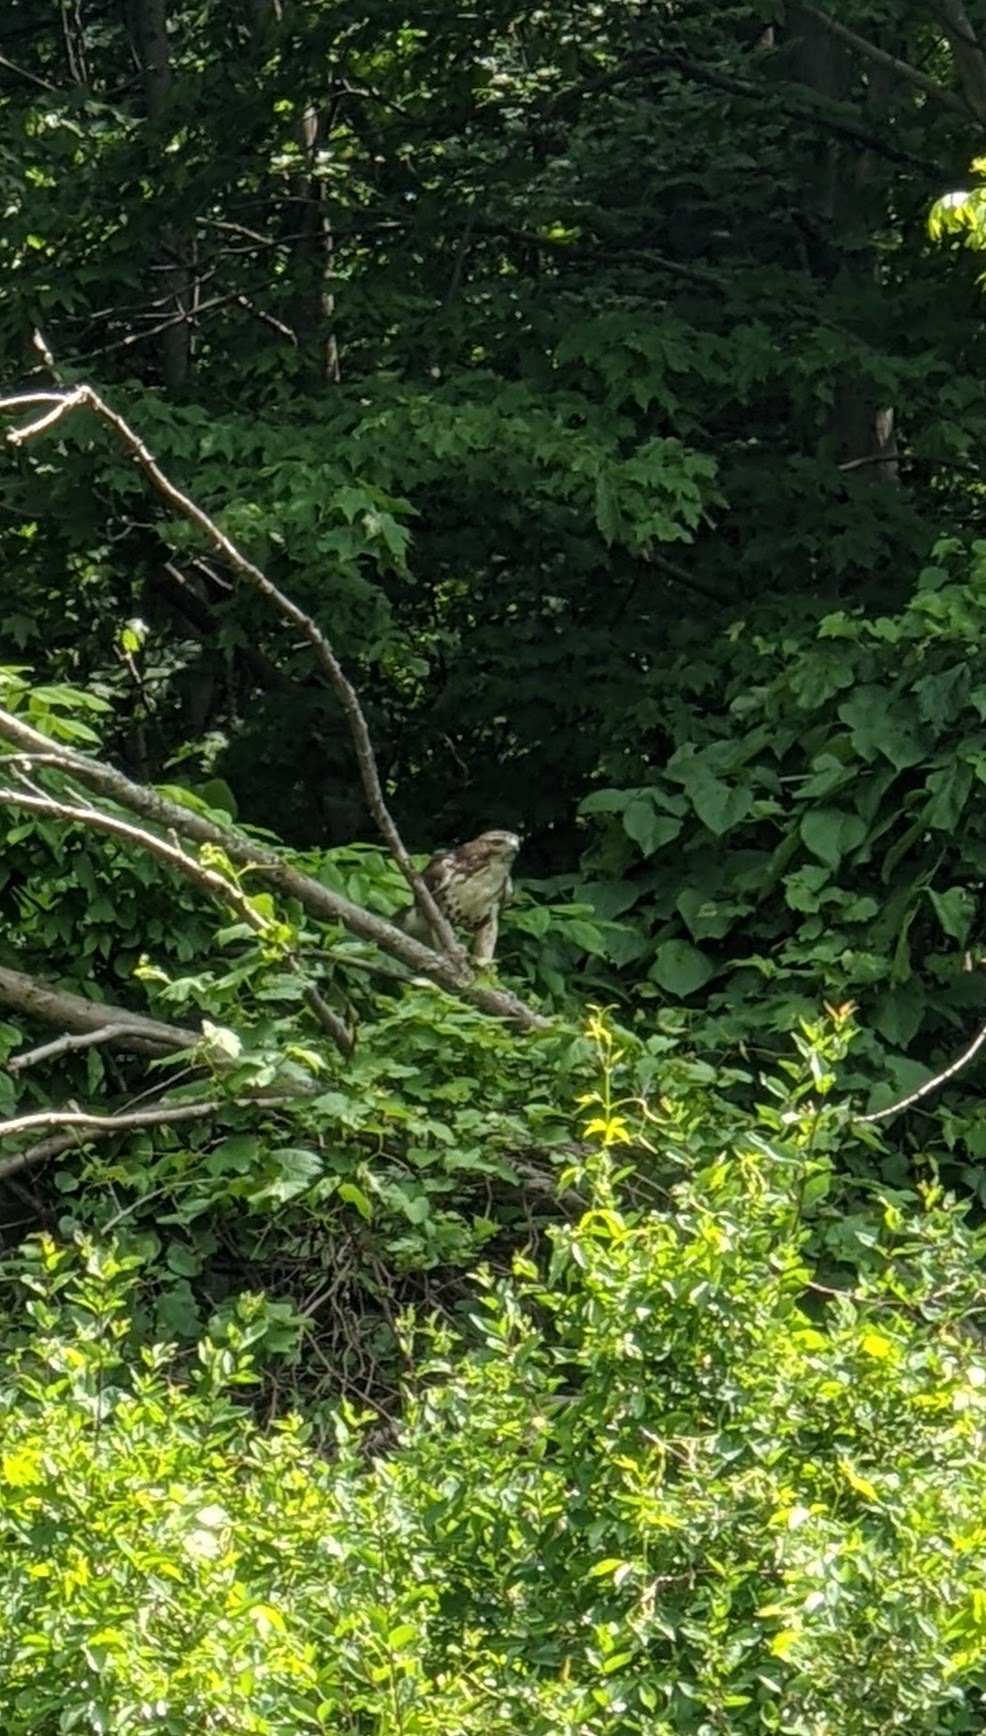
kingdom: Animalia
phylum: Chordata
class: Aves
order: Accipitriformes
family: Accipitridae
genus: Buteo
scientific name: Buteo jamaicensis
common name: Red-tailed hawk
